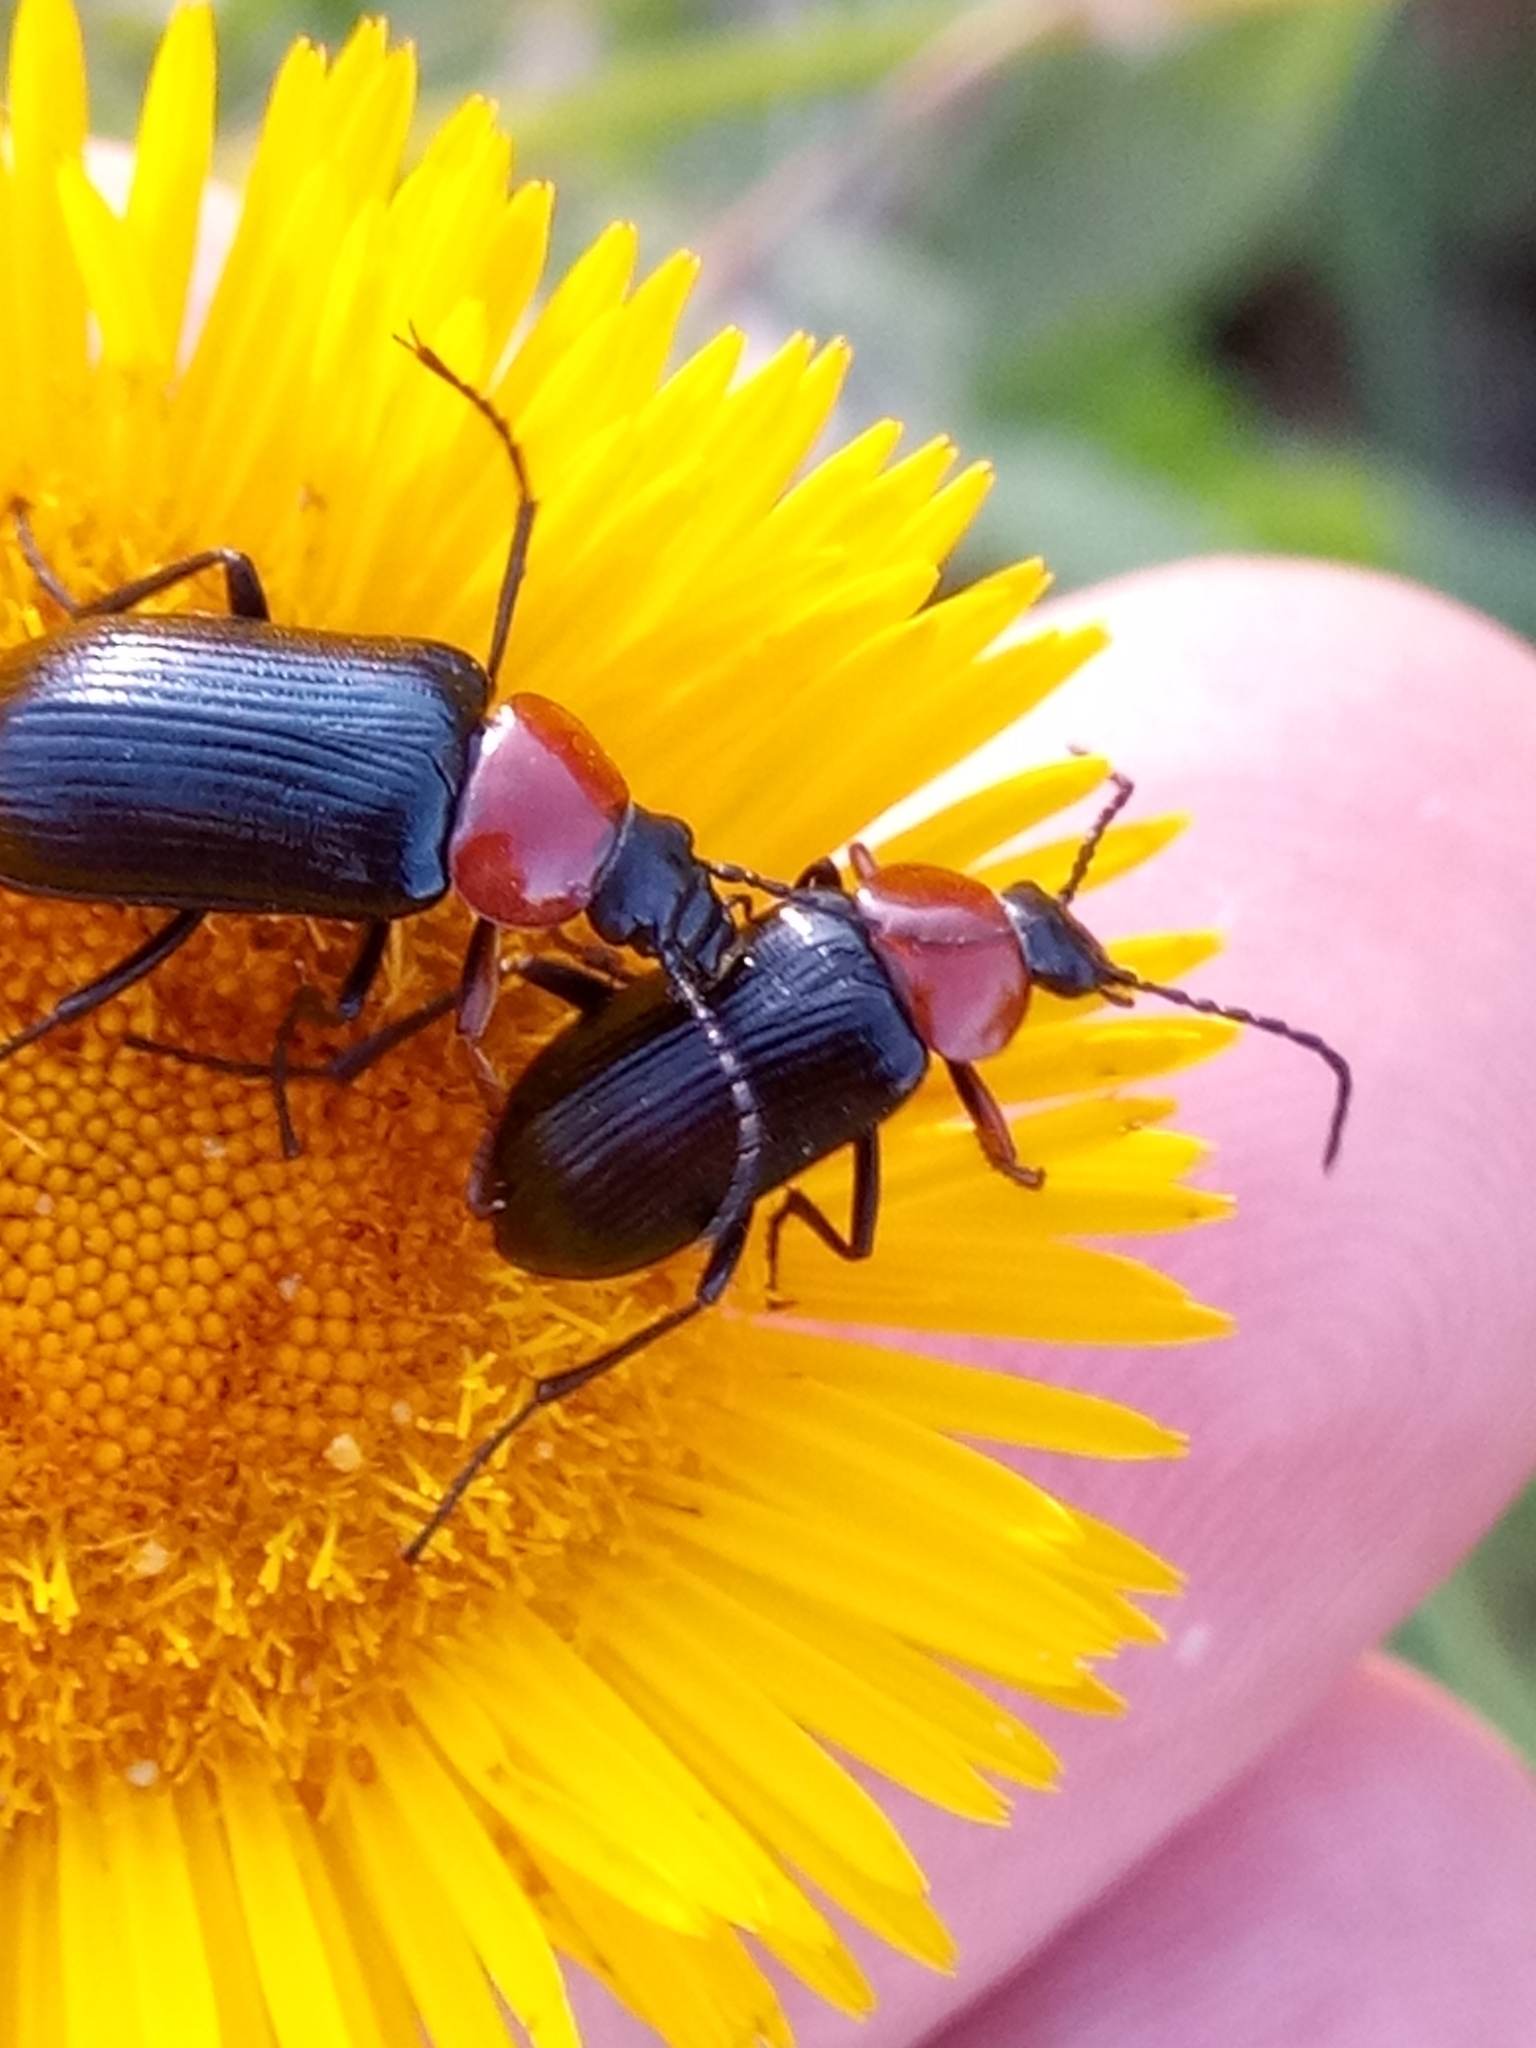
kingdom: Animalia
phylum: Arthropoda
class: Insecta
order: Coleoptera
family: Tenebrionidae
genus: Heliotaurus
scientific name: Heliotaurus ruficollis
